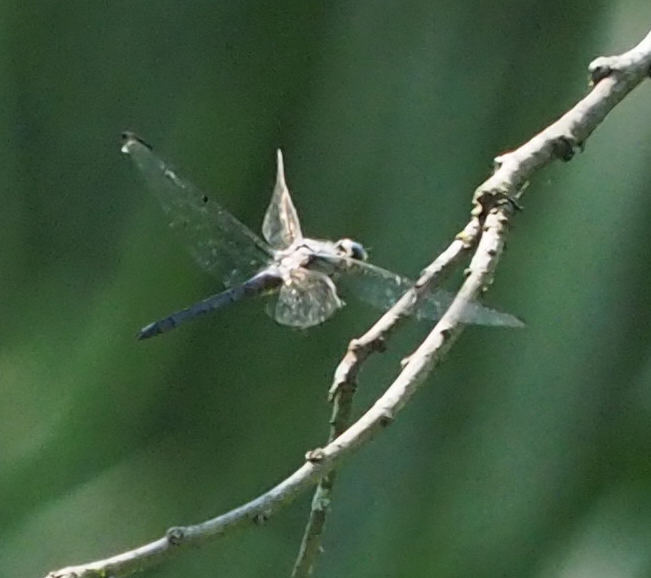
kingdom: Animalia
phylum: Arthropoda
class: Insecta
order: Odonata
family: Libellulidae
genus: Libellula
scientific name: Libellula vibrans
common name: Great blue skimmer
